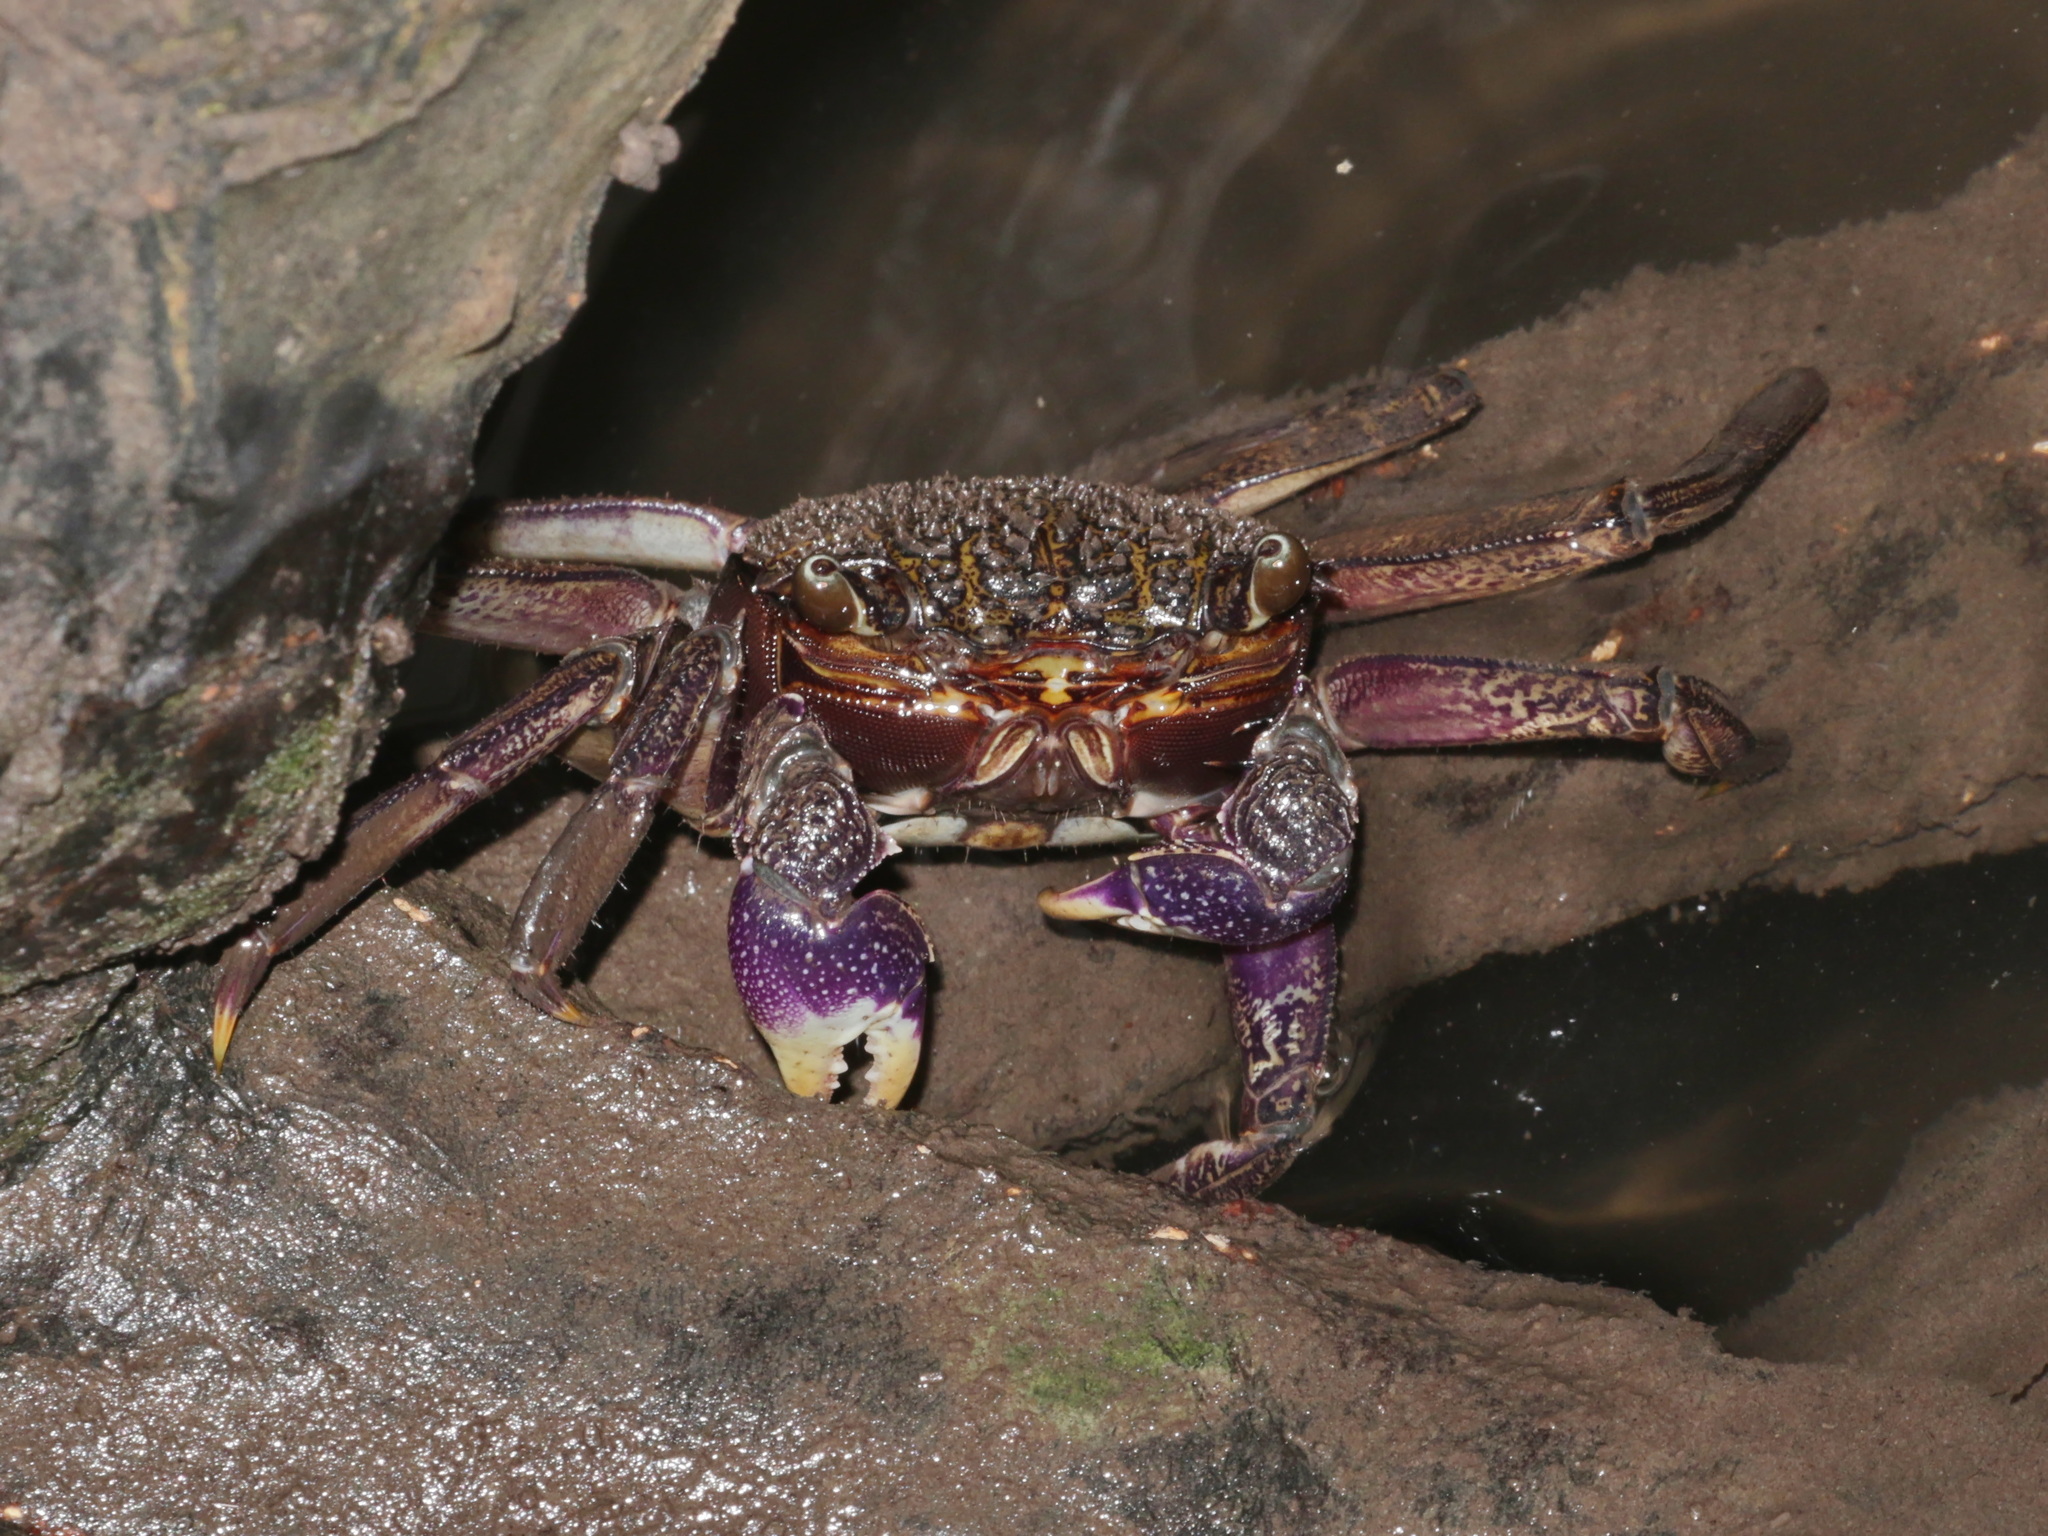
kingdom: Animalia
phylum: Arthropoda
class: Malacostraca
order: Decapoda
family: Sesarmidae
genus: Episesarma
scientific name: Episesarma versicolor
